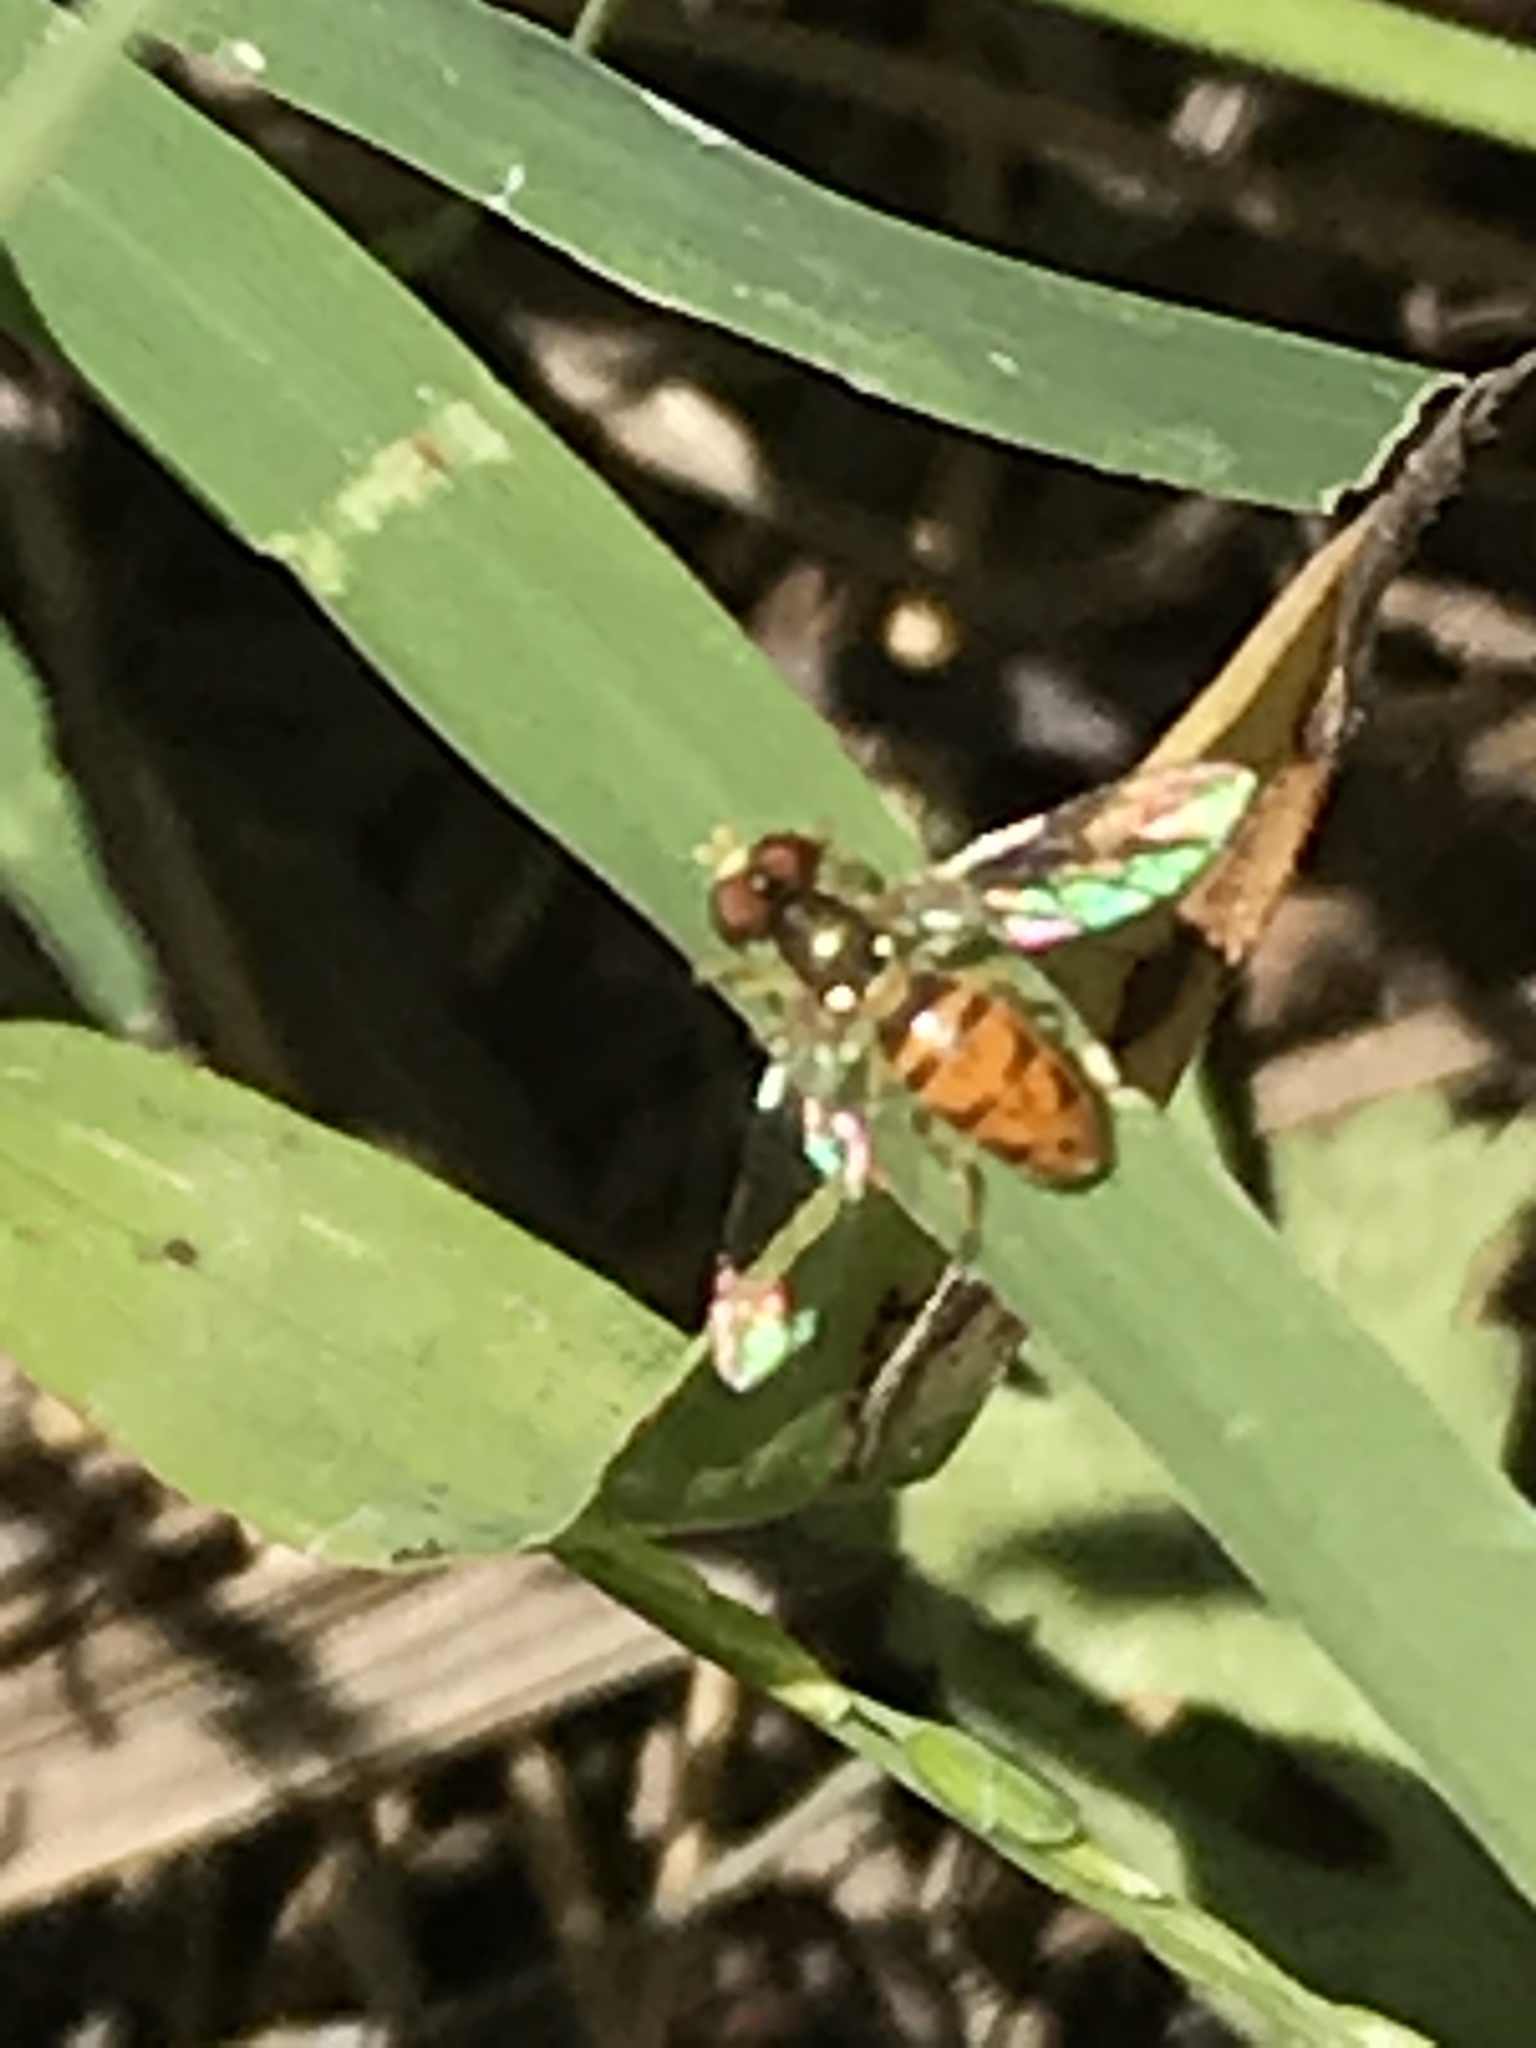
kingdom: Animalia
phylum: Arthropoda
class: Insecta
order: Diptera
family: Syrphidae
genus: Toxomerus
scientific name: Toxomerus marginatus
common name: Syrphid fly
